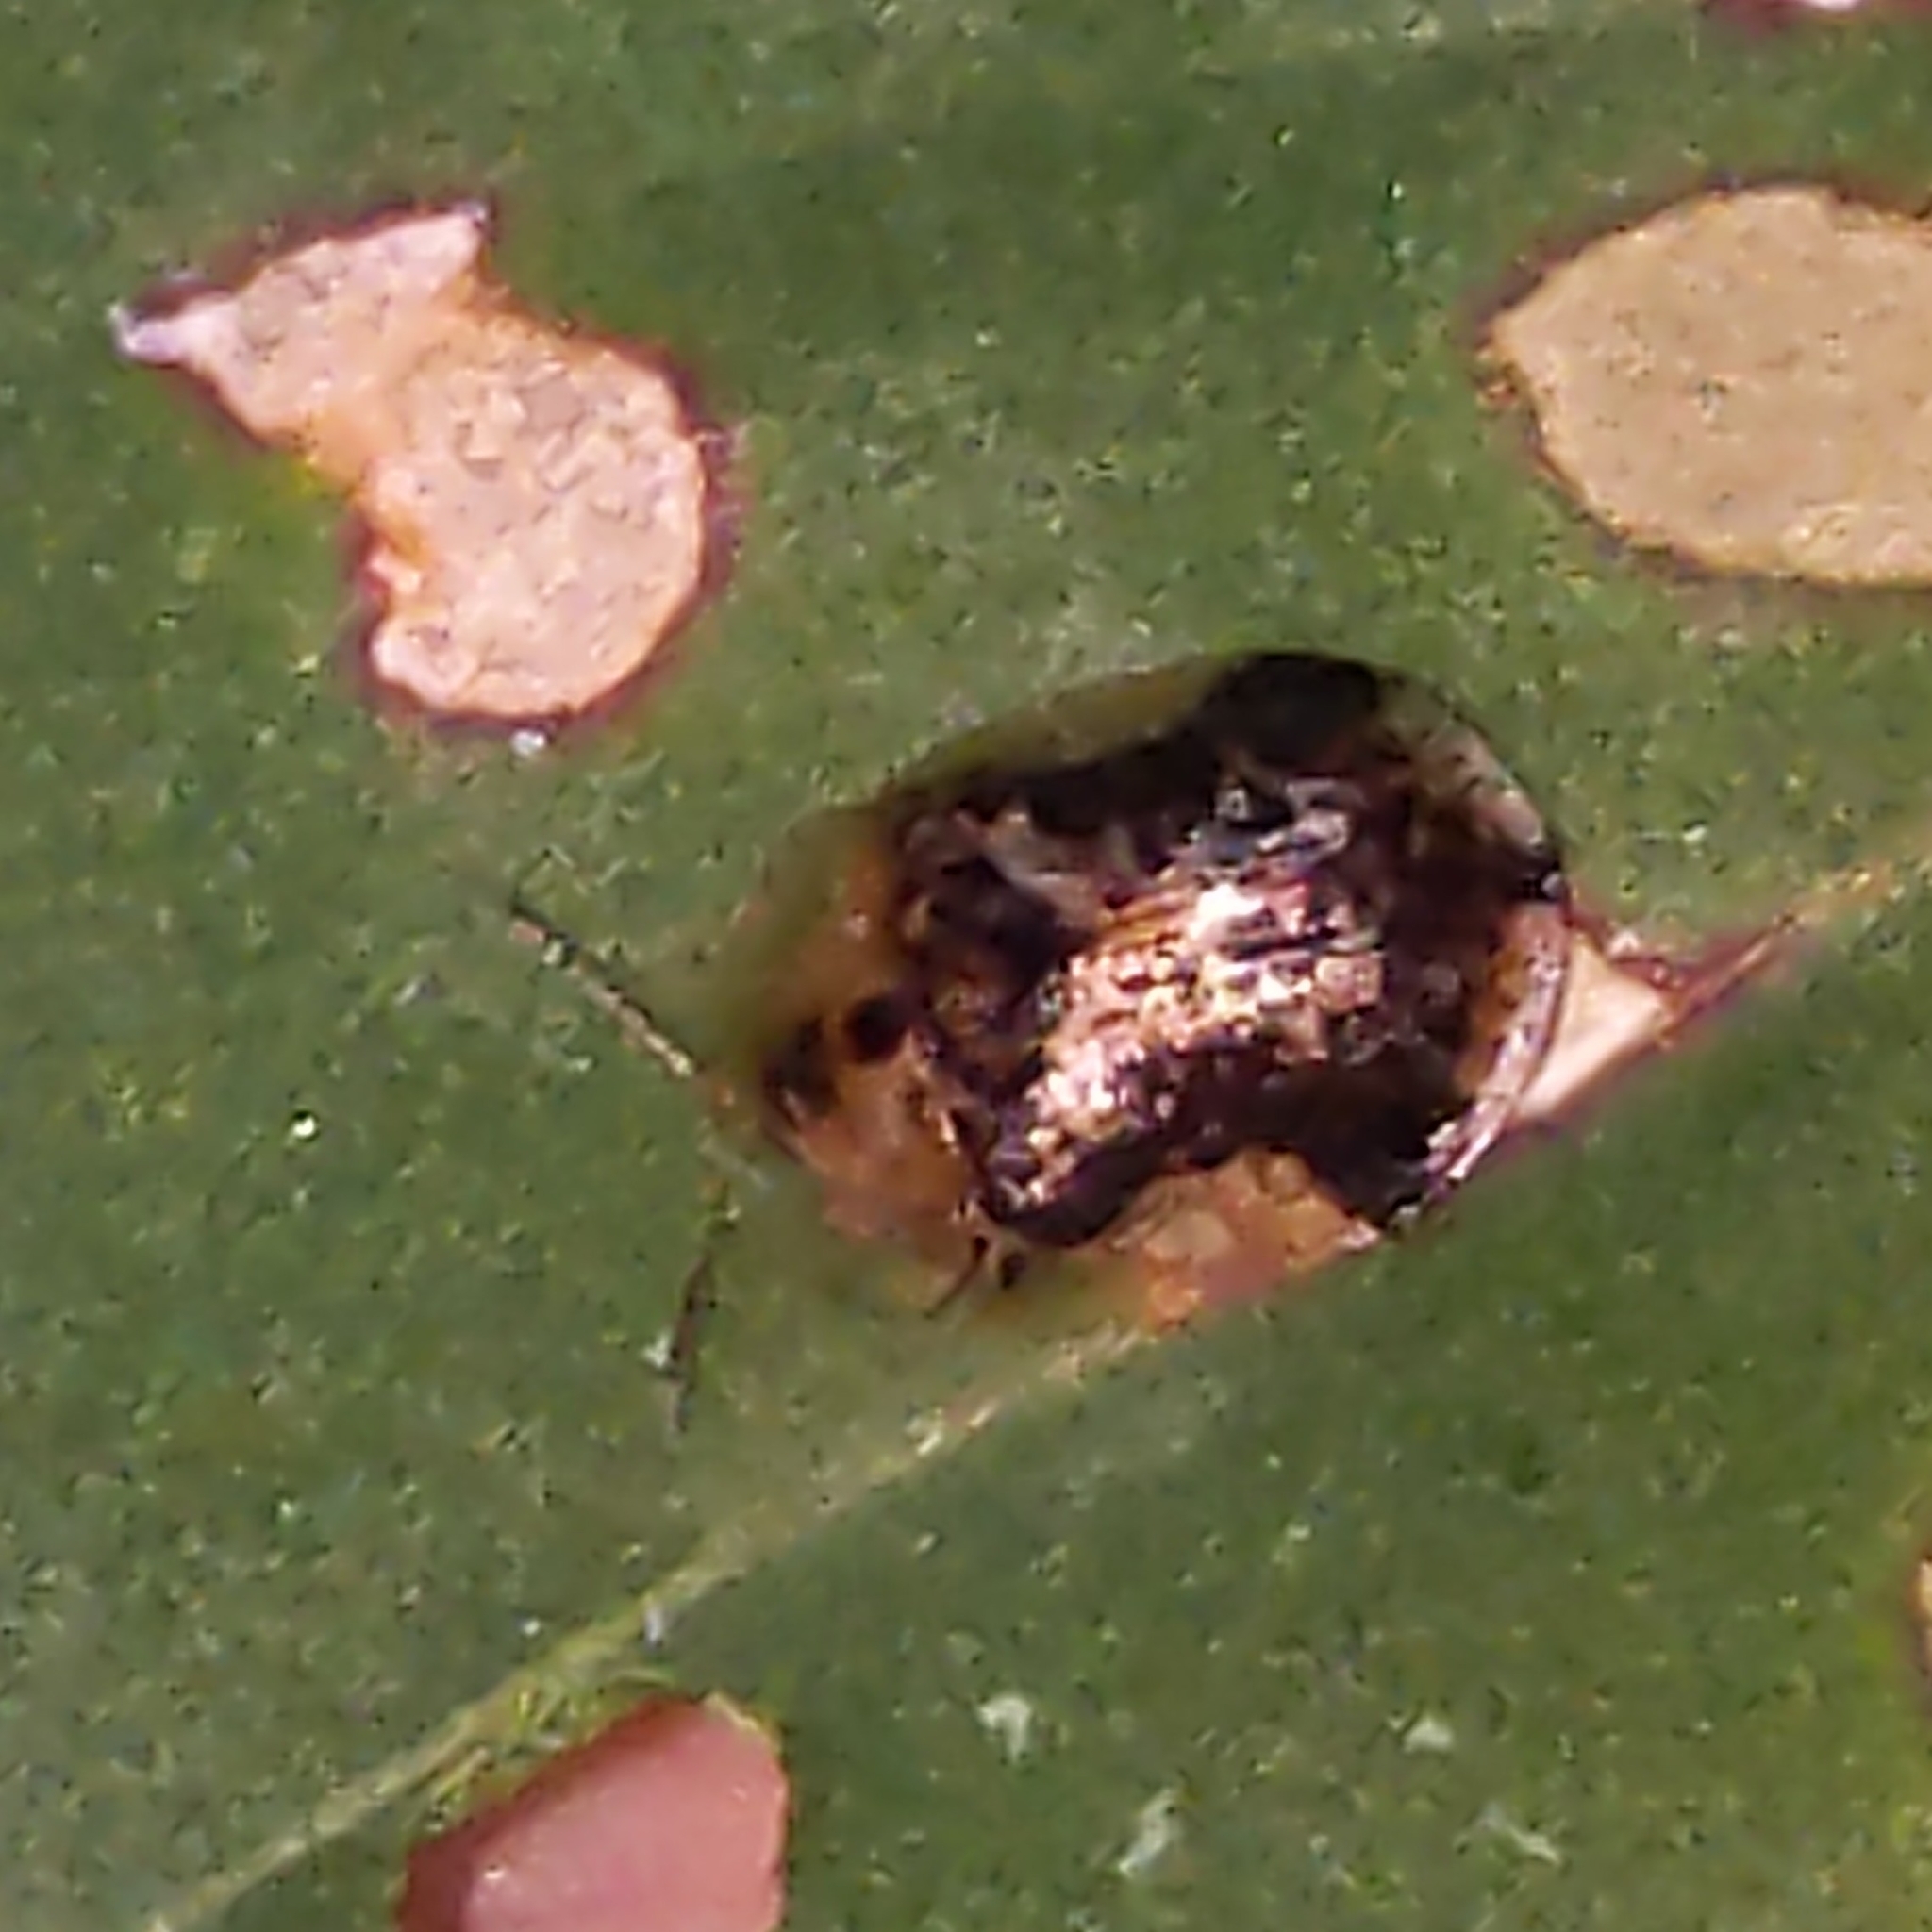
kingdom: Animalia
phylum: Arthropoda
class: Insecta
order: Coleoptera
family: Chrysomelidae
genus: Deloyala
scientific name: Deloyala guttata
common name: Mottled tortoise beetle
